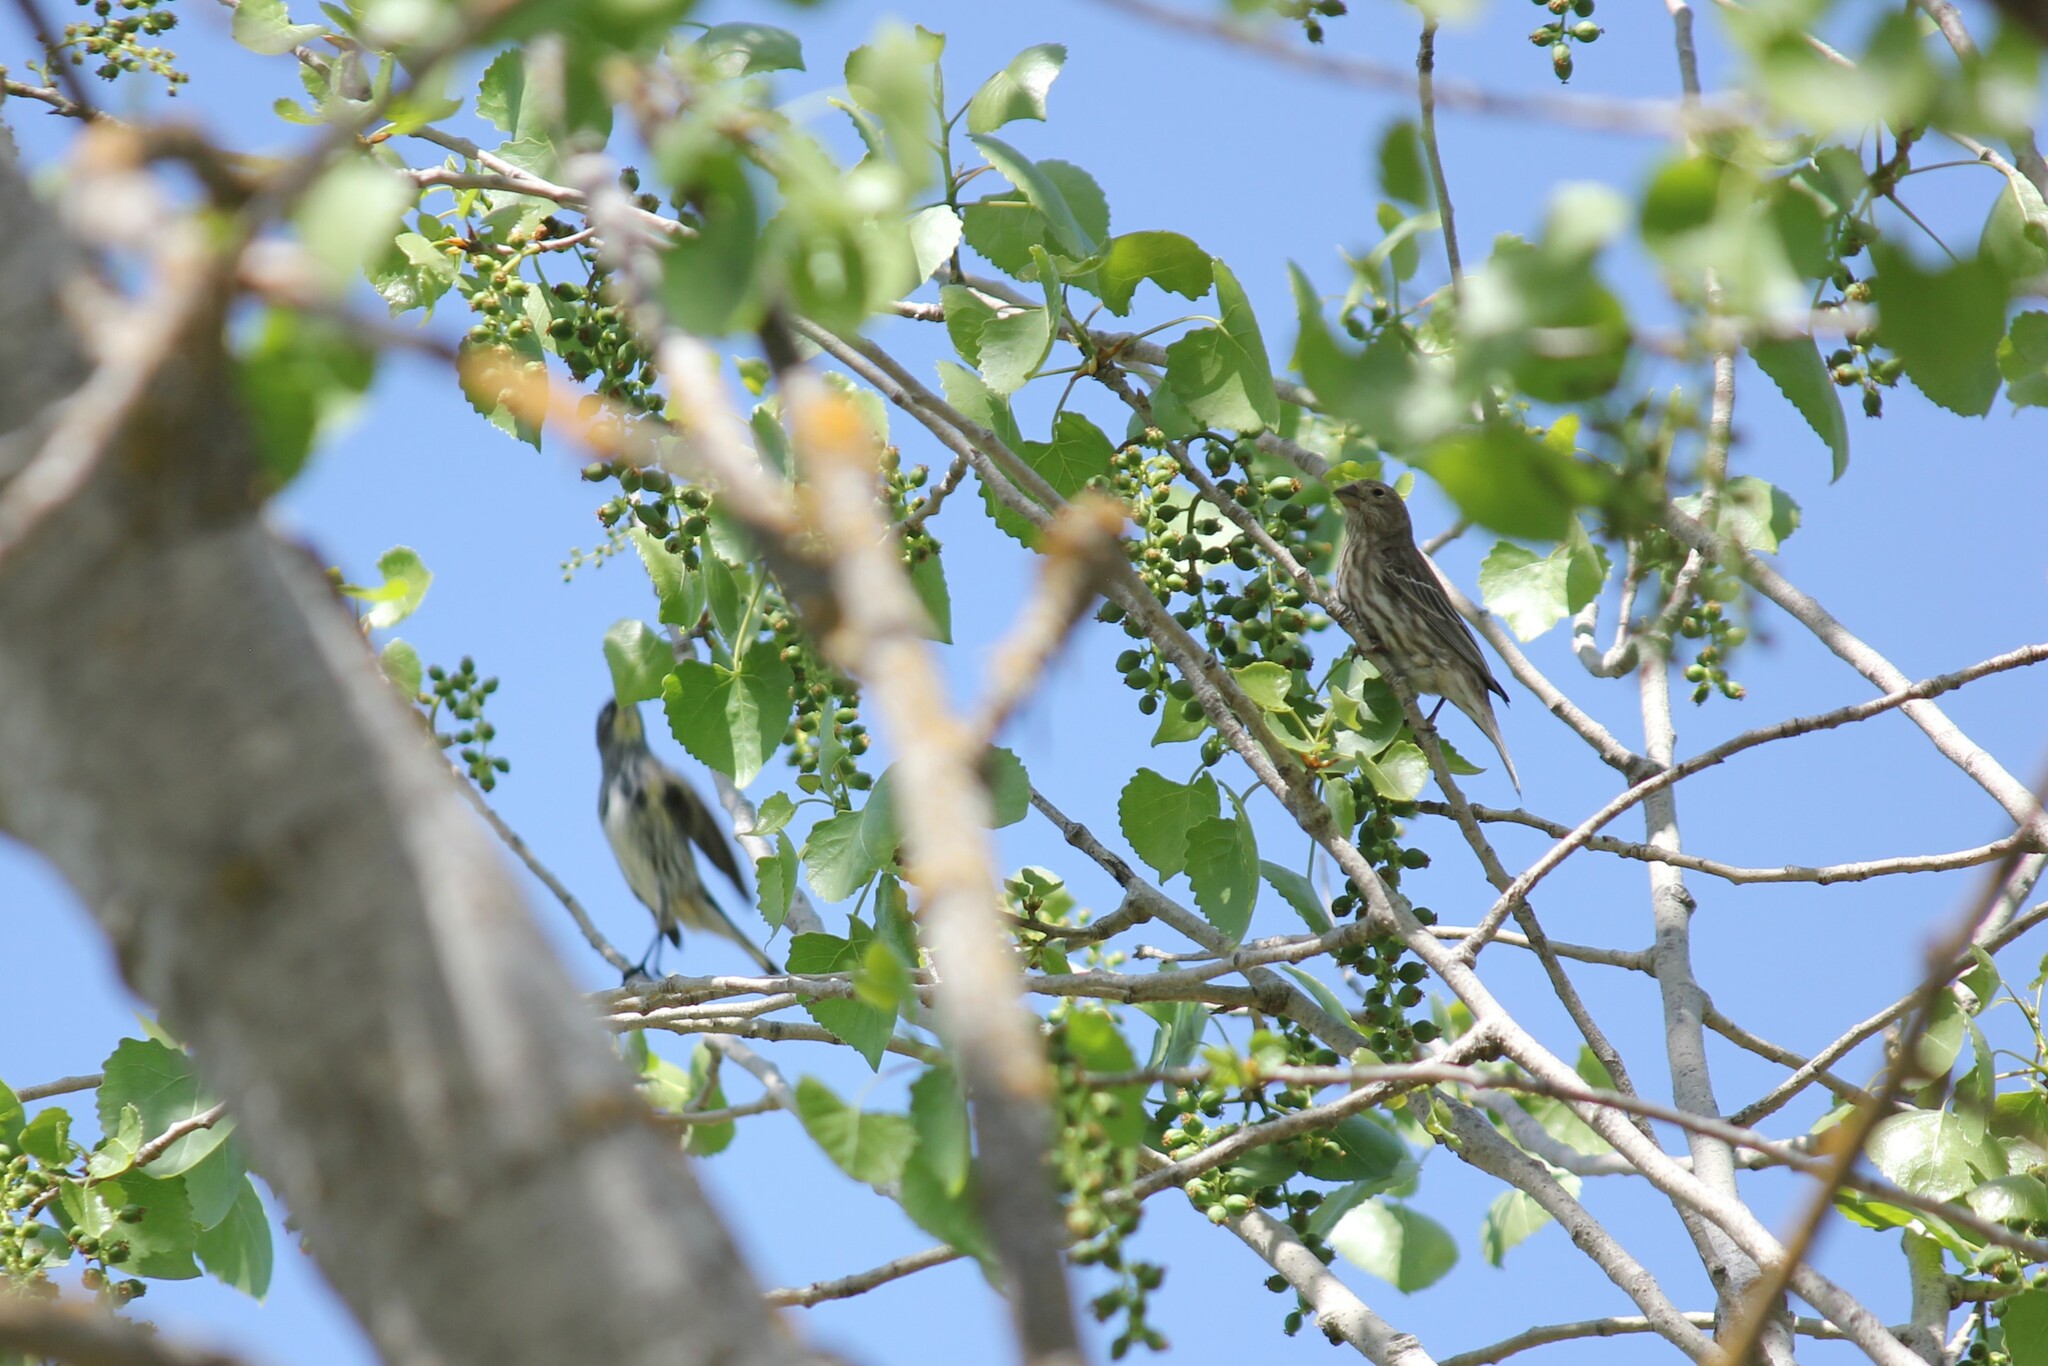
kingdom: Animalia
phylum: Chordata
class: Aves
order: Passeriformes
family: Fringillidae
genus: Haemorhous
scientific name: Haemorhous mexicanus
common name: House finch
